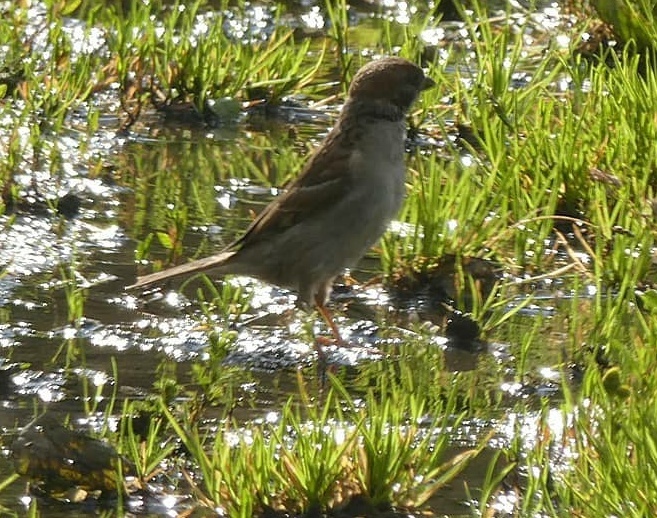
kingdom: Animalia
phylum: Chordata
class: Aves
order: Passeriformes
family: Passeridae
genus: Passer
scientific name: Passer domesticus
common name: House sparrow
